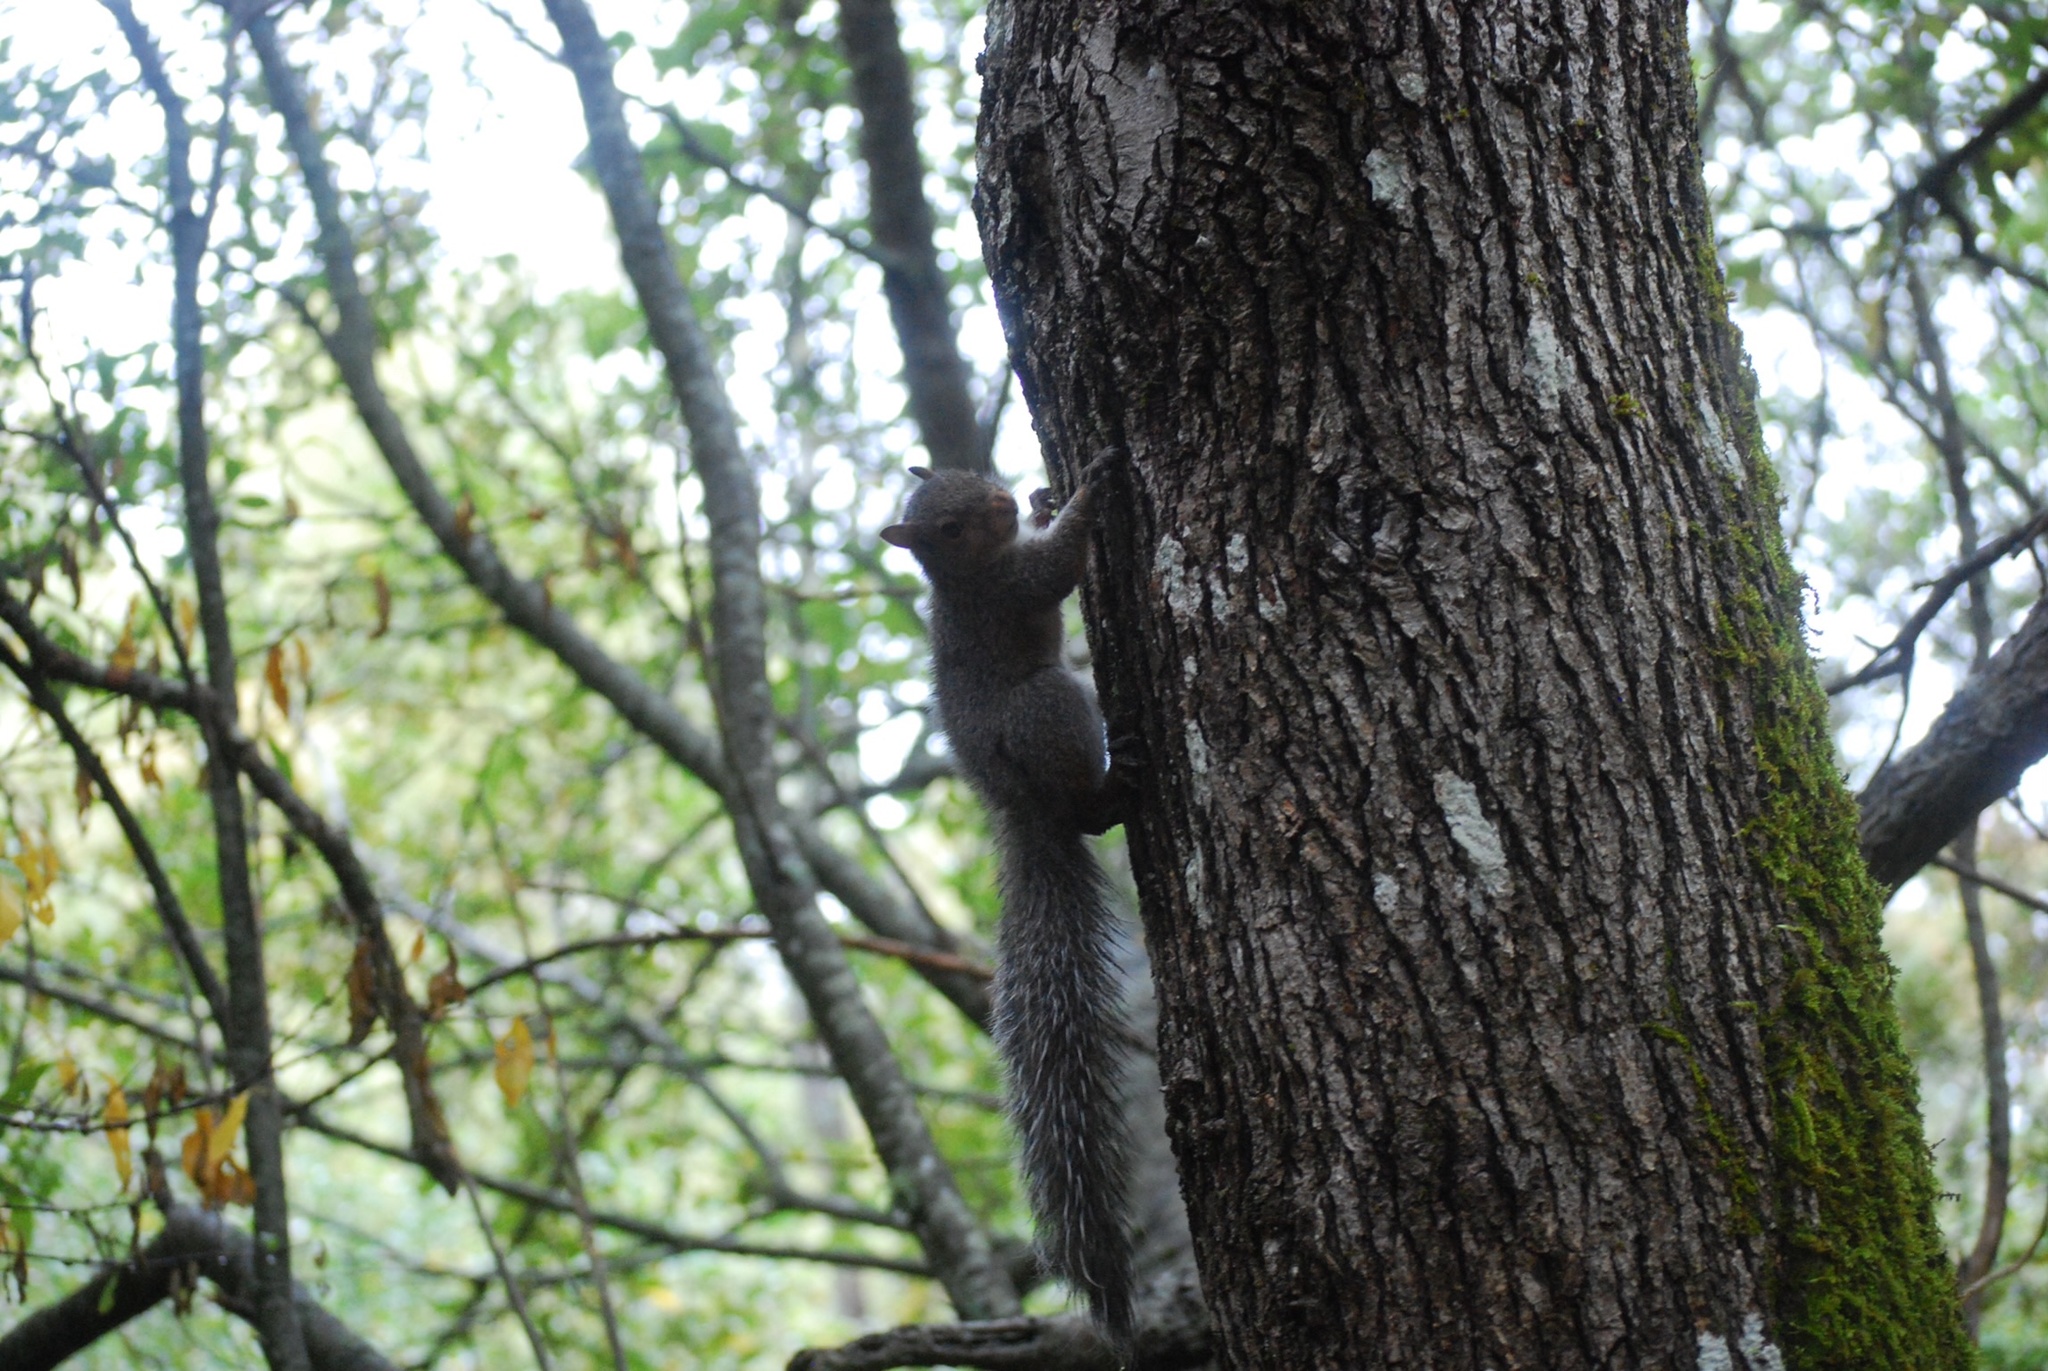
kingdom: Animalia
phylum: Chordata
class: Mammalia
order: Rodentia
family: Sciuridae
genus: Sciurus
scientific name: Sciurus carolinensis
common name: Eastern gray squirrel
